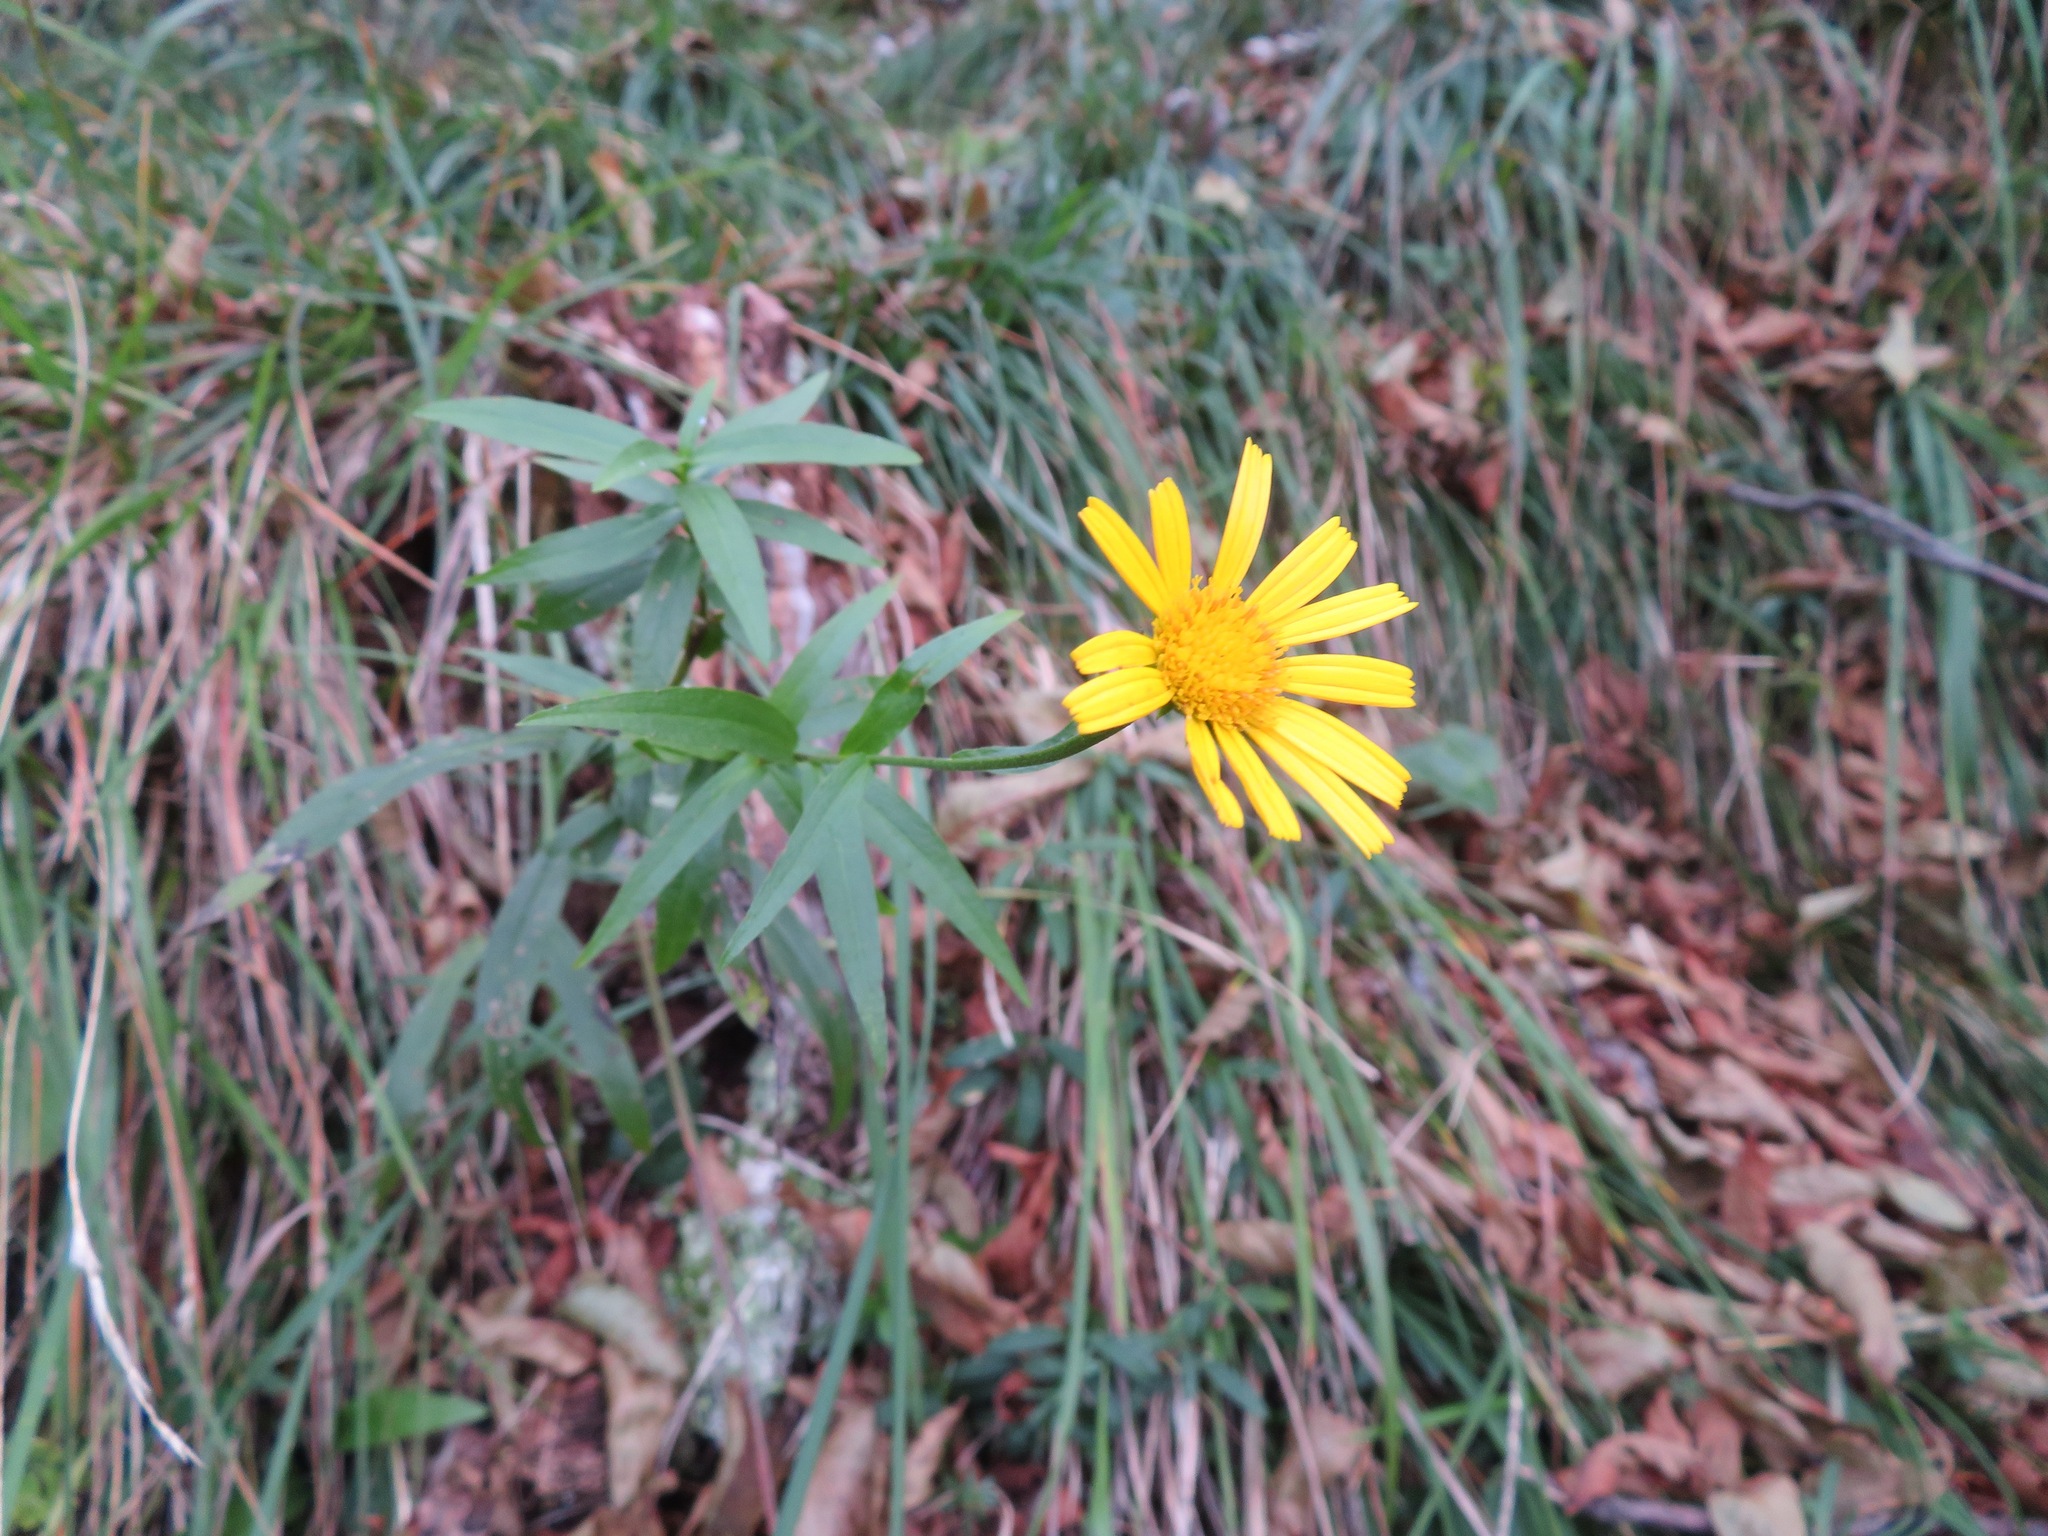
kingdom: Plantae
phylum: Tracheophyta
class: Magnoliopsida
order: Asterales
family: Asteraceae
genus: Buphthalmum
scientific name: Buphthalmum salicifolium
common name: Willow-leaved yellow-oxeye
